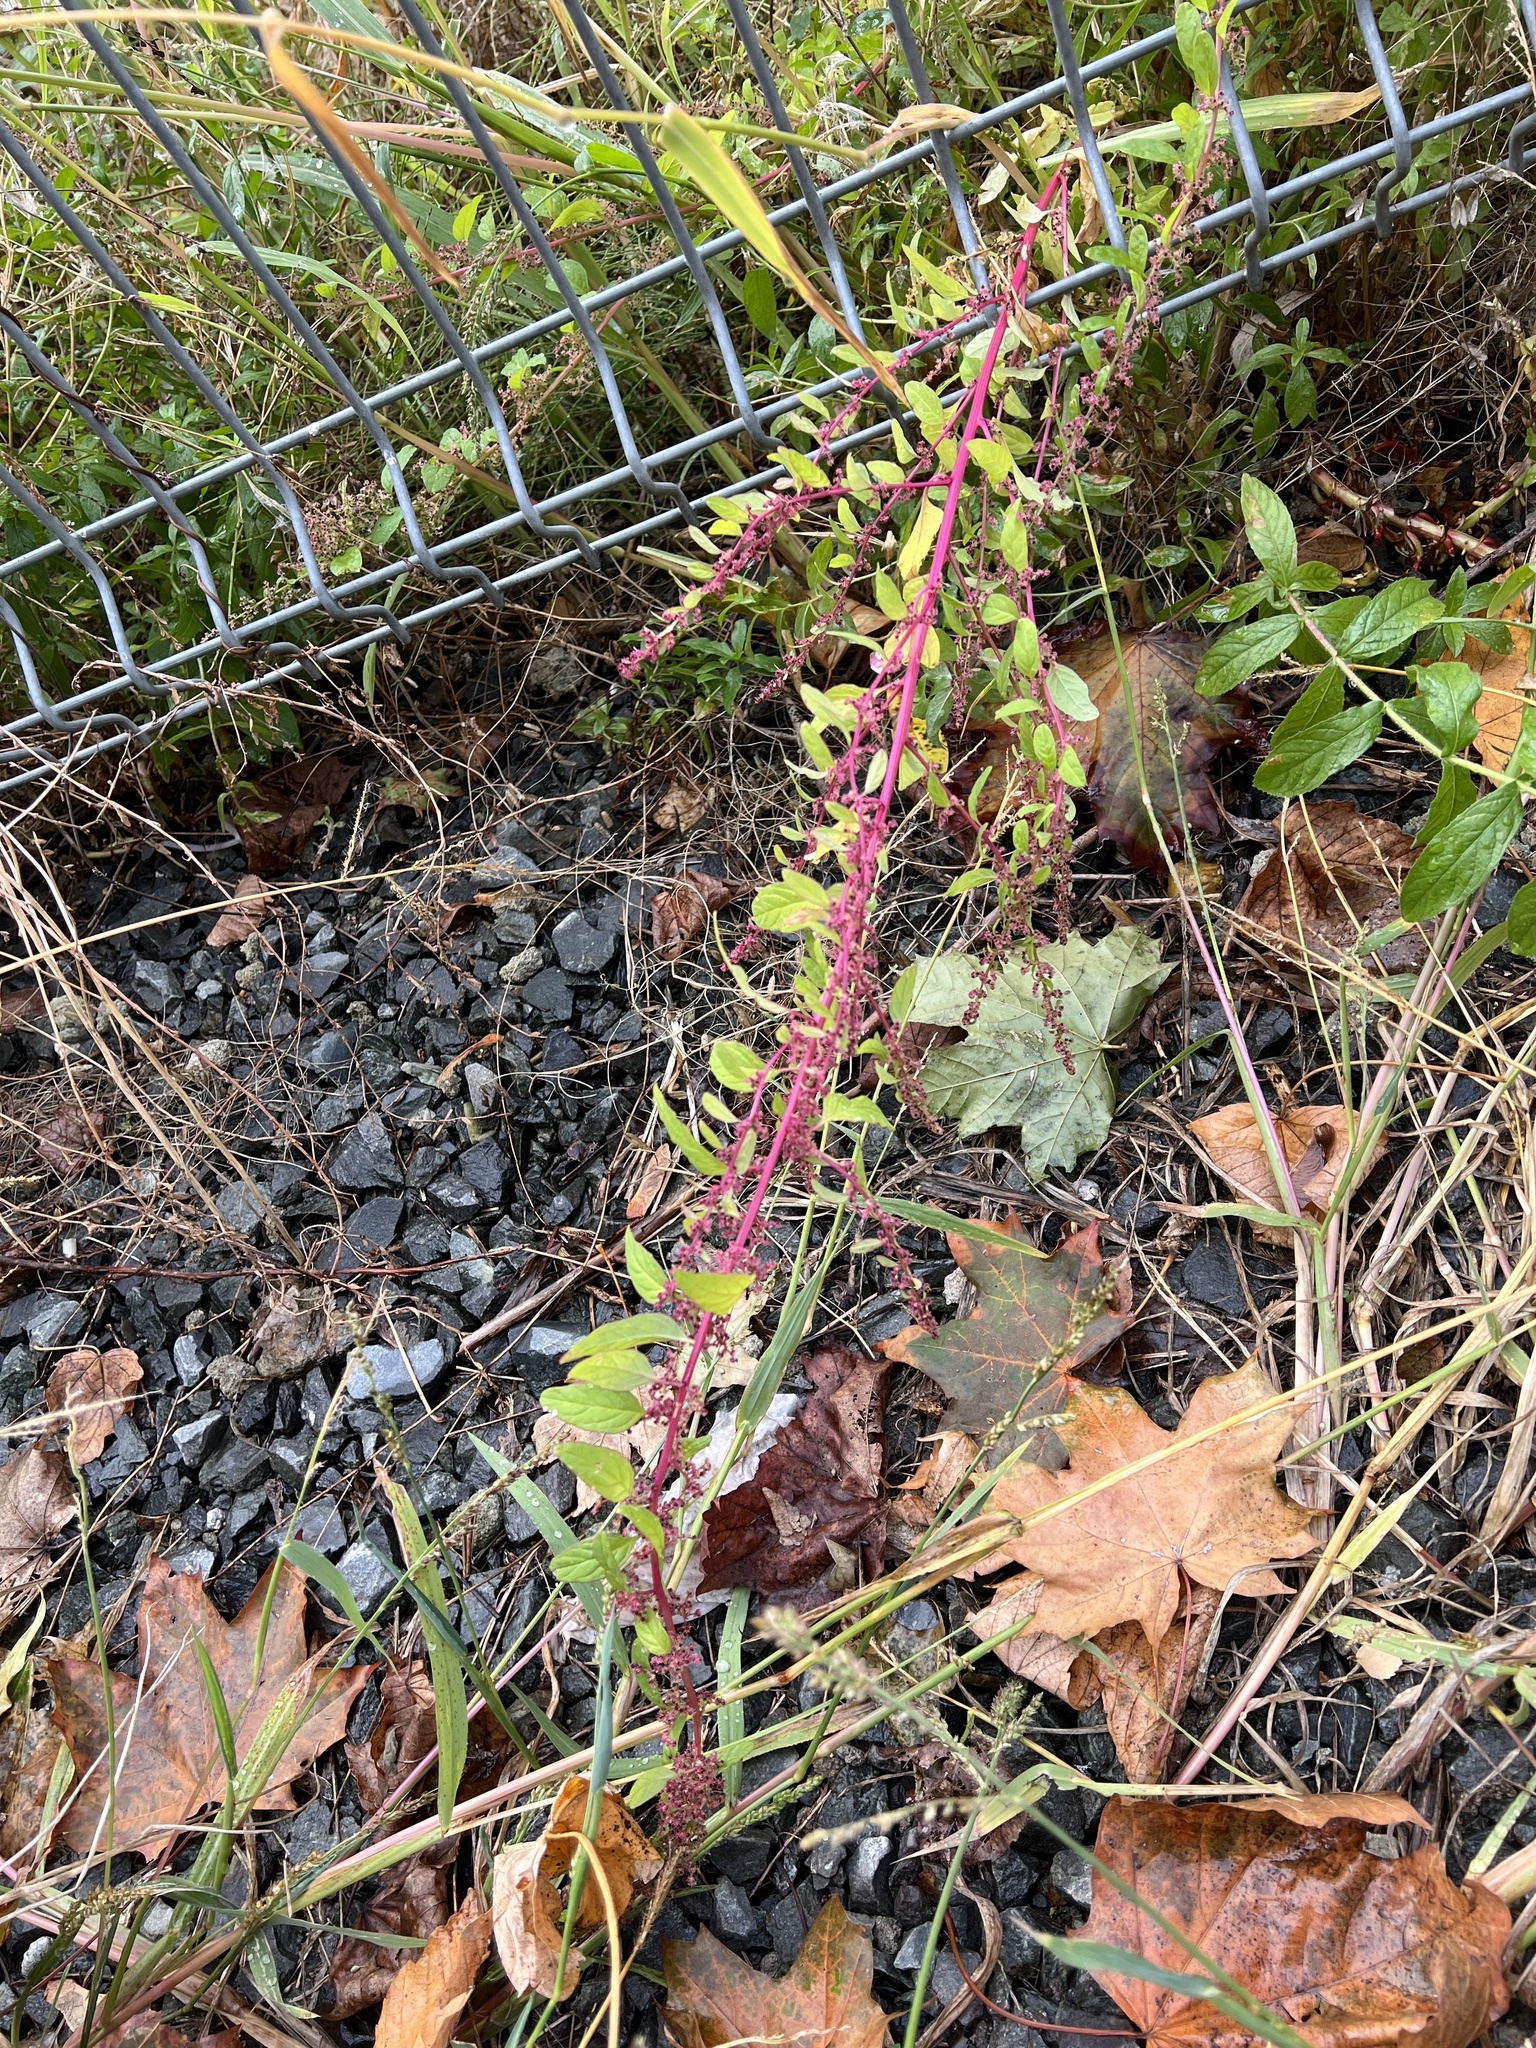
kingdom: Plantae
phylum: Tracheophyta
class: Magnoliopsida
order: Caryophyllales
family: Amaranthaceae
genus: Lipandra
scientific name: Lipandra polysperma
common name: Many-seed goosefoot
